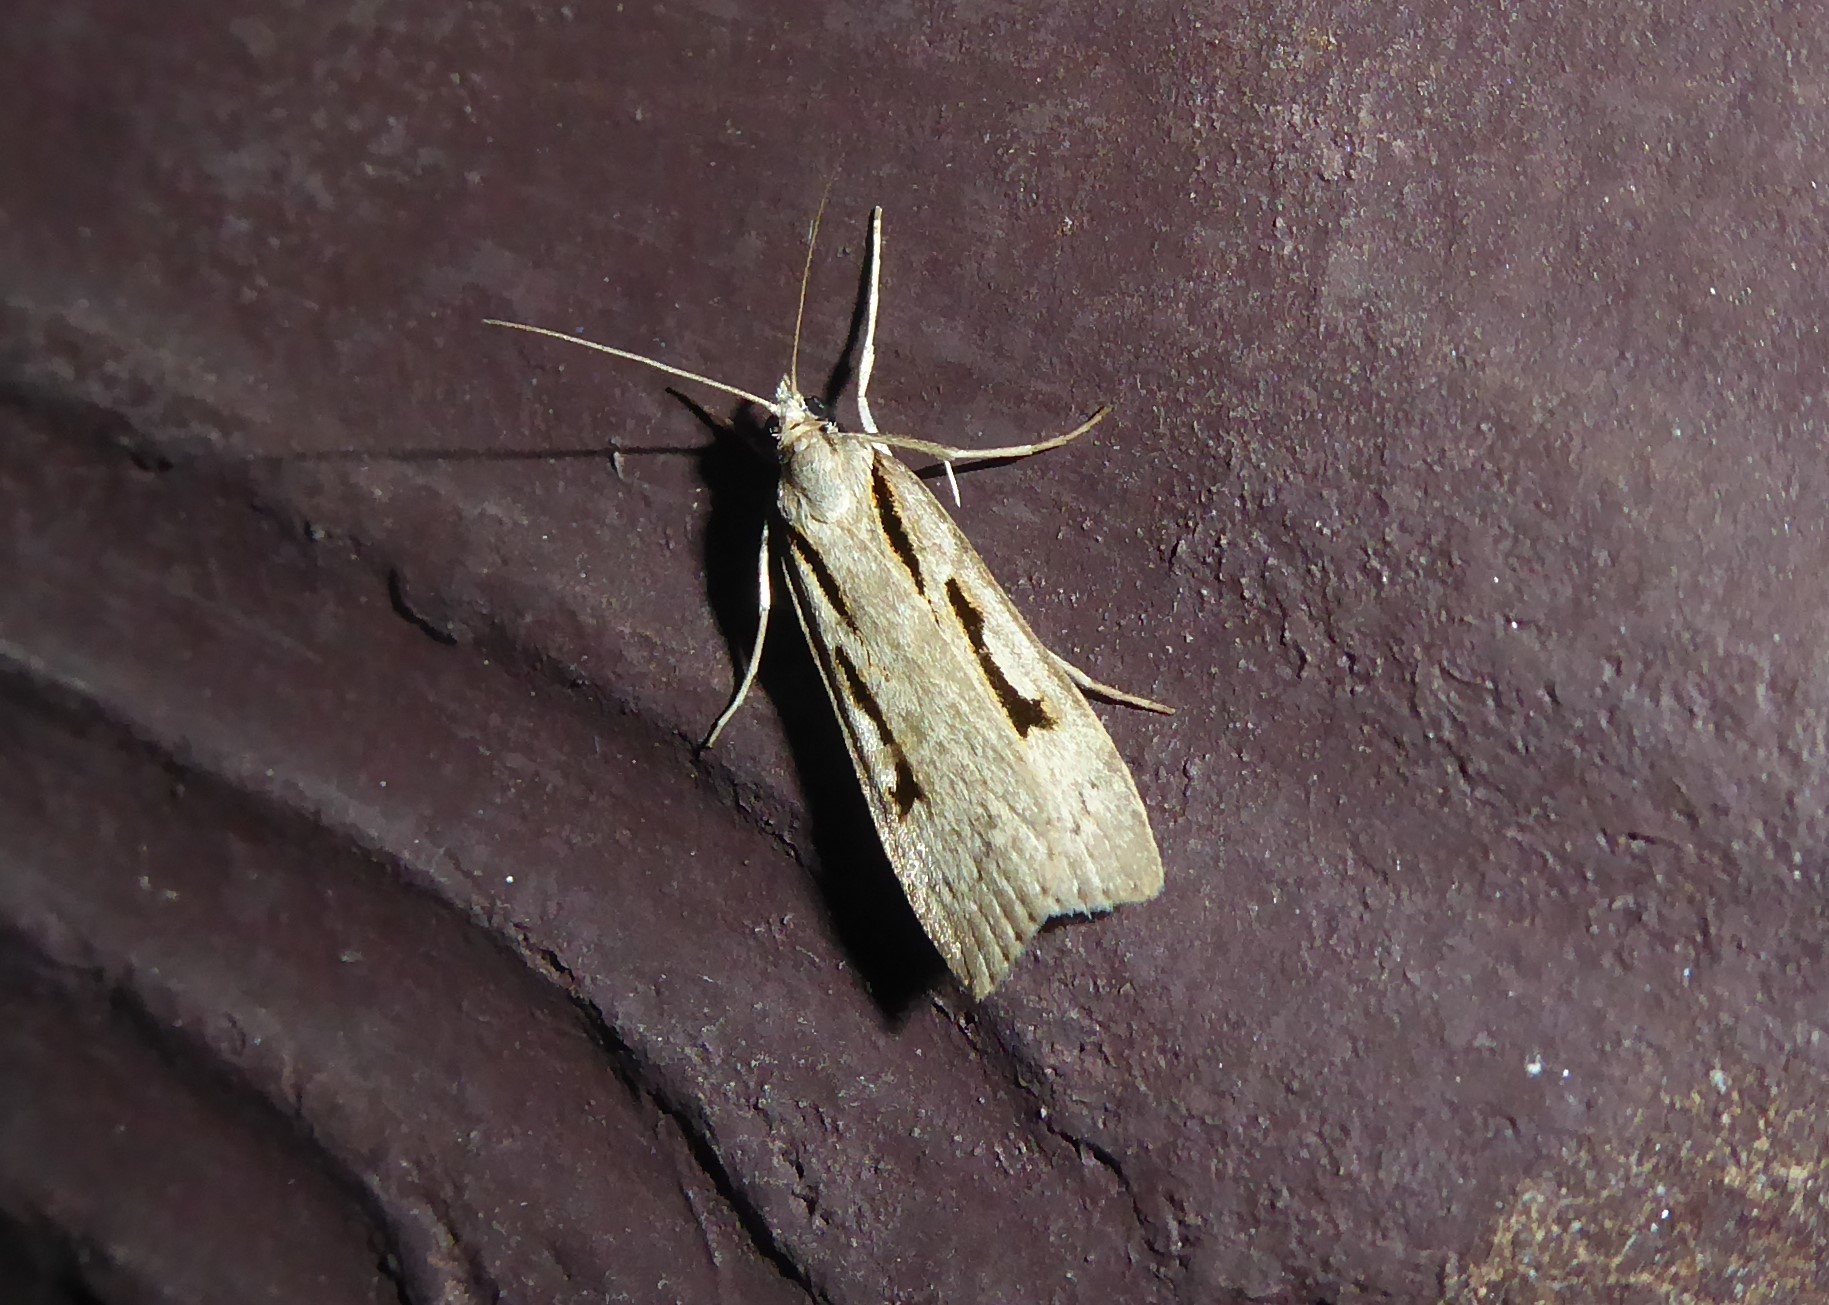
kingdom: Animalia
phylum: Arthropoda
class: Insecta
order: Lepidoptera
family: Crambidae
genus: Scoparia
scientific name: Scoparia rotuellus
